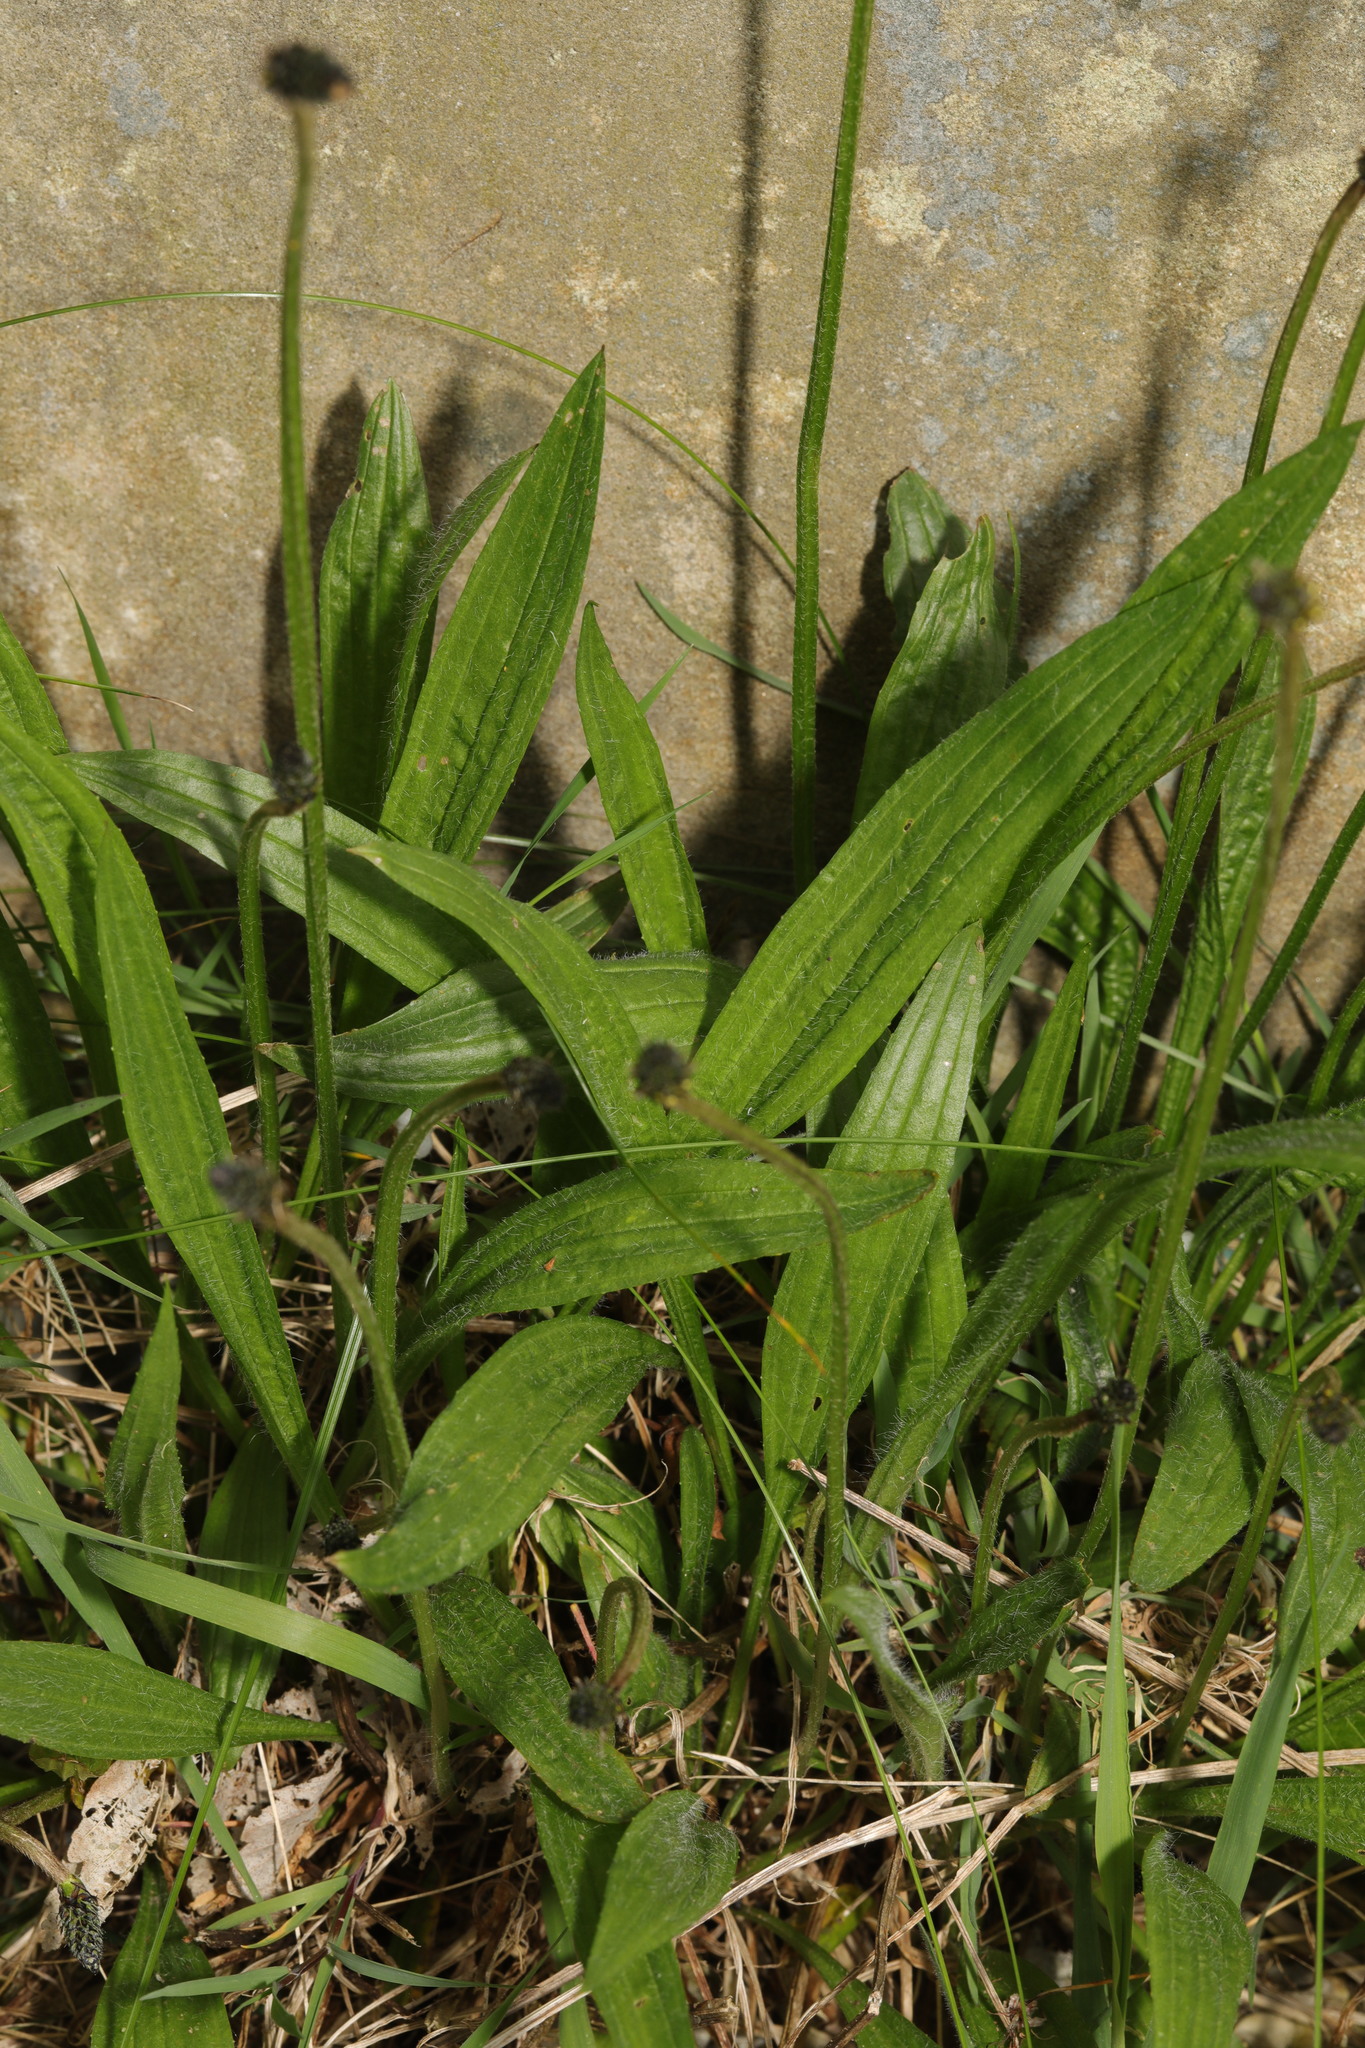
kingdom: Plantae
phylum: Tracheophyta
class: Magnoliopsida
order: Lamiales
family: Plantaginaceae
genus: Plantago
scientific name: Plantago lanceolata
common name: Ribwort plantain
